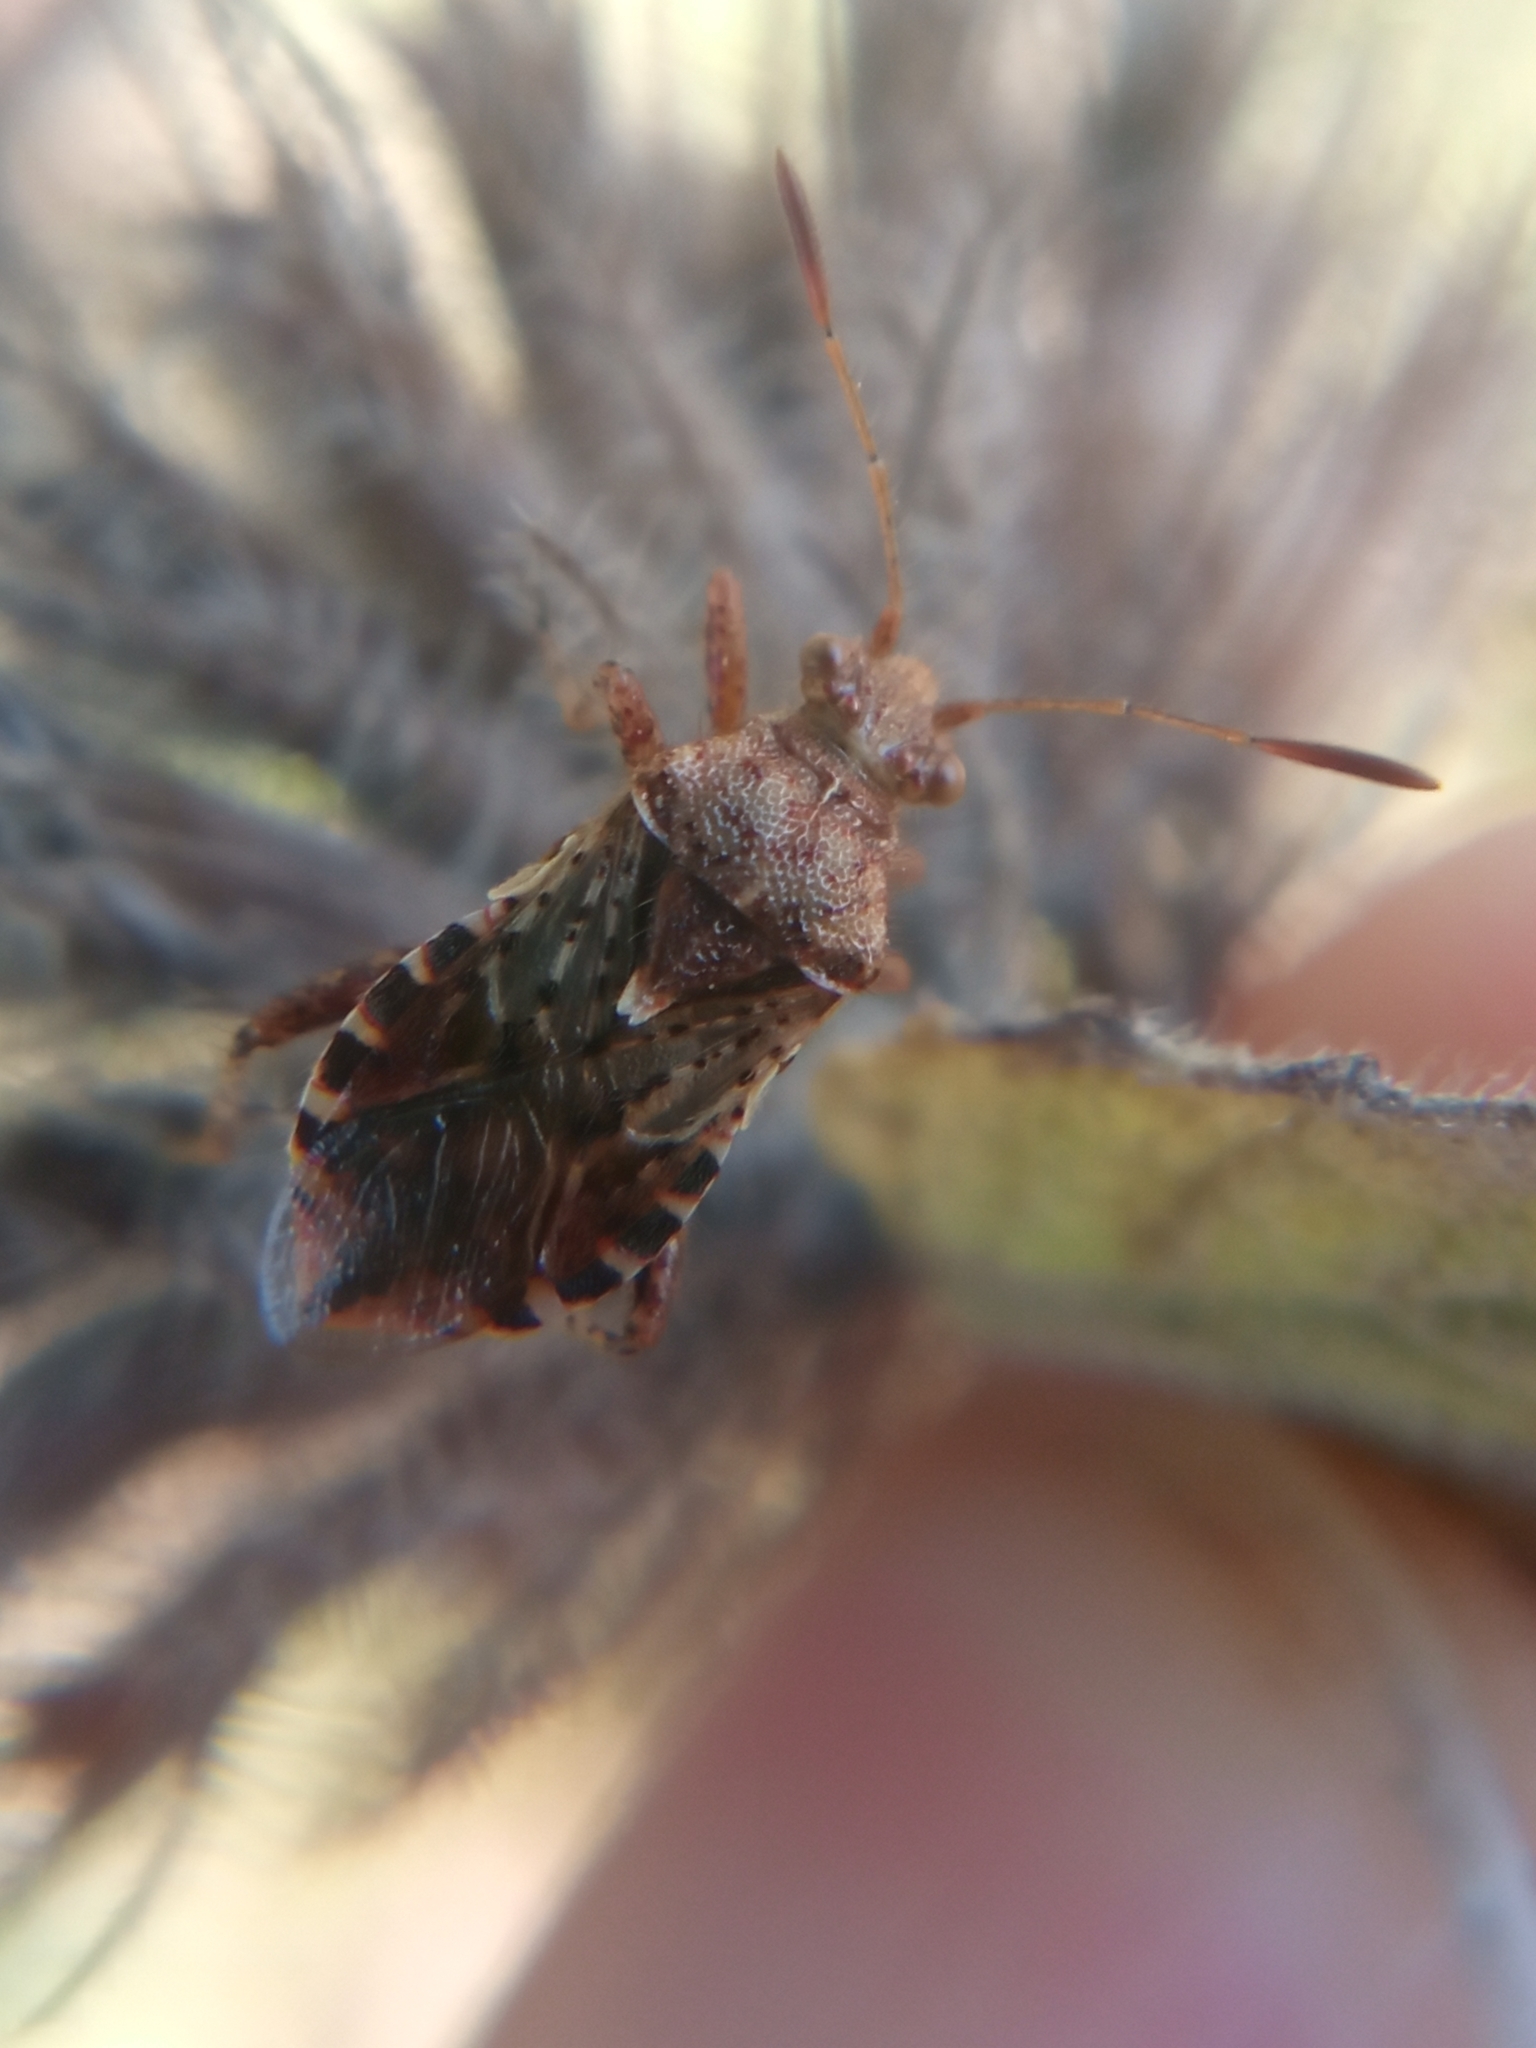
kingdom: Animalia
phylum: Arthropoda
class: Insecta
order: Hemiptera
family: Rhopalidae
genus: Rhopalus
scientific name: Rhopalus subrufus
